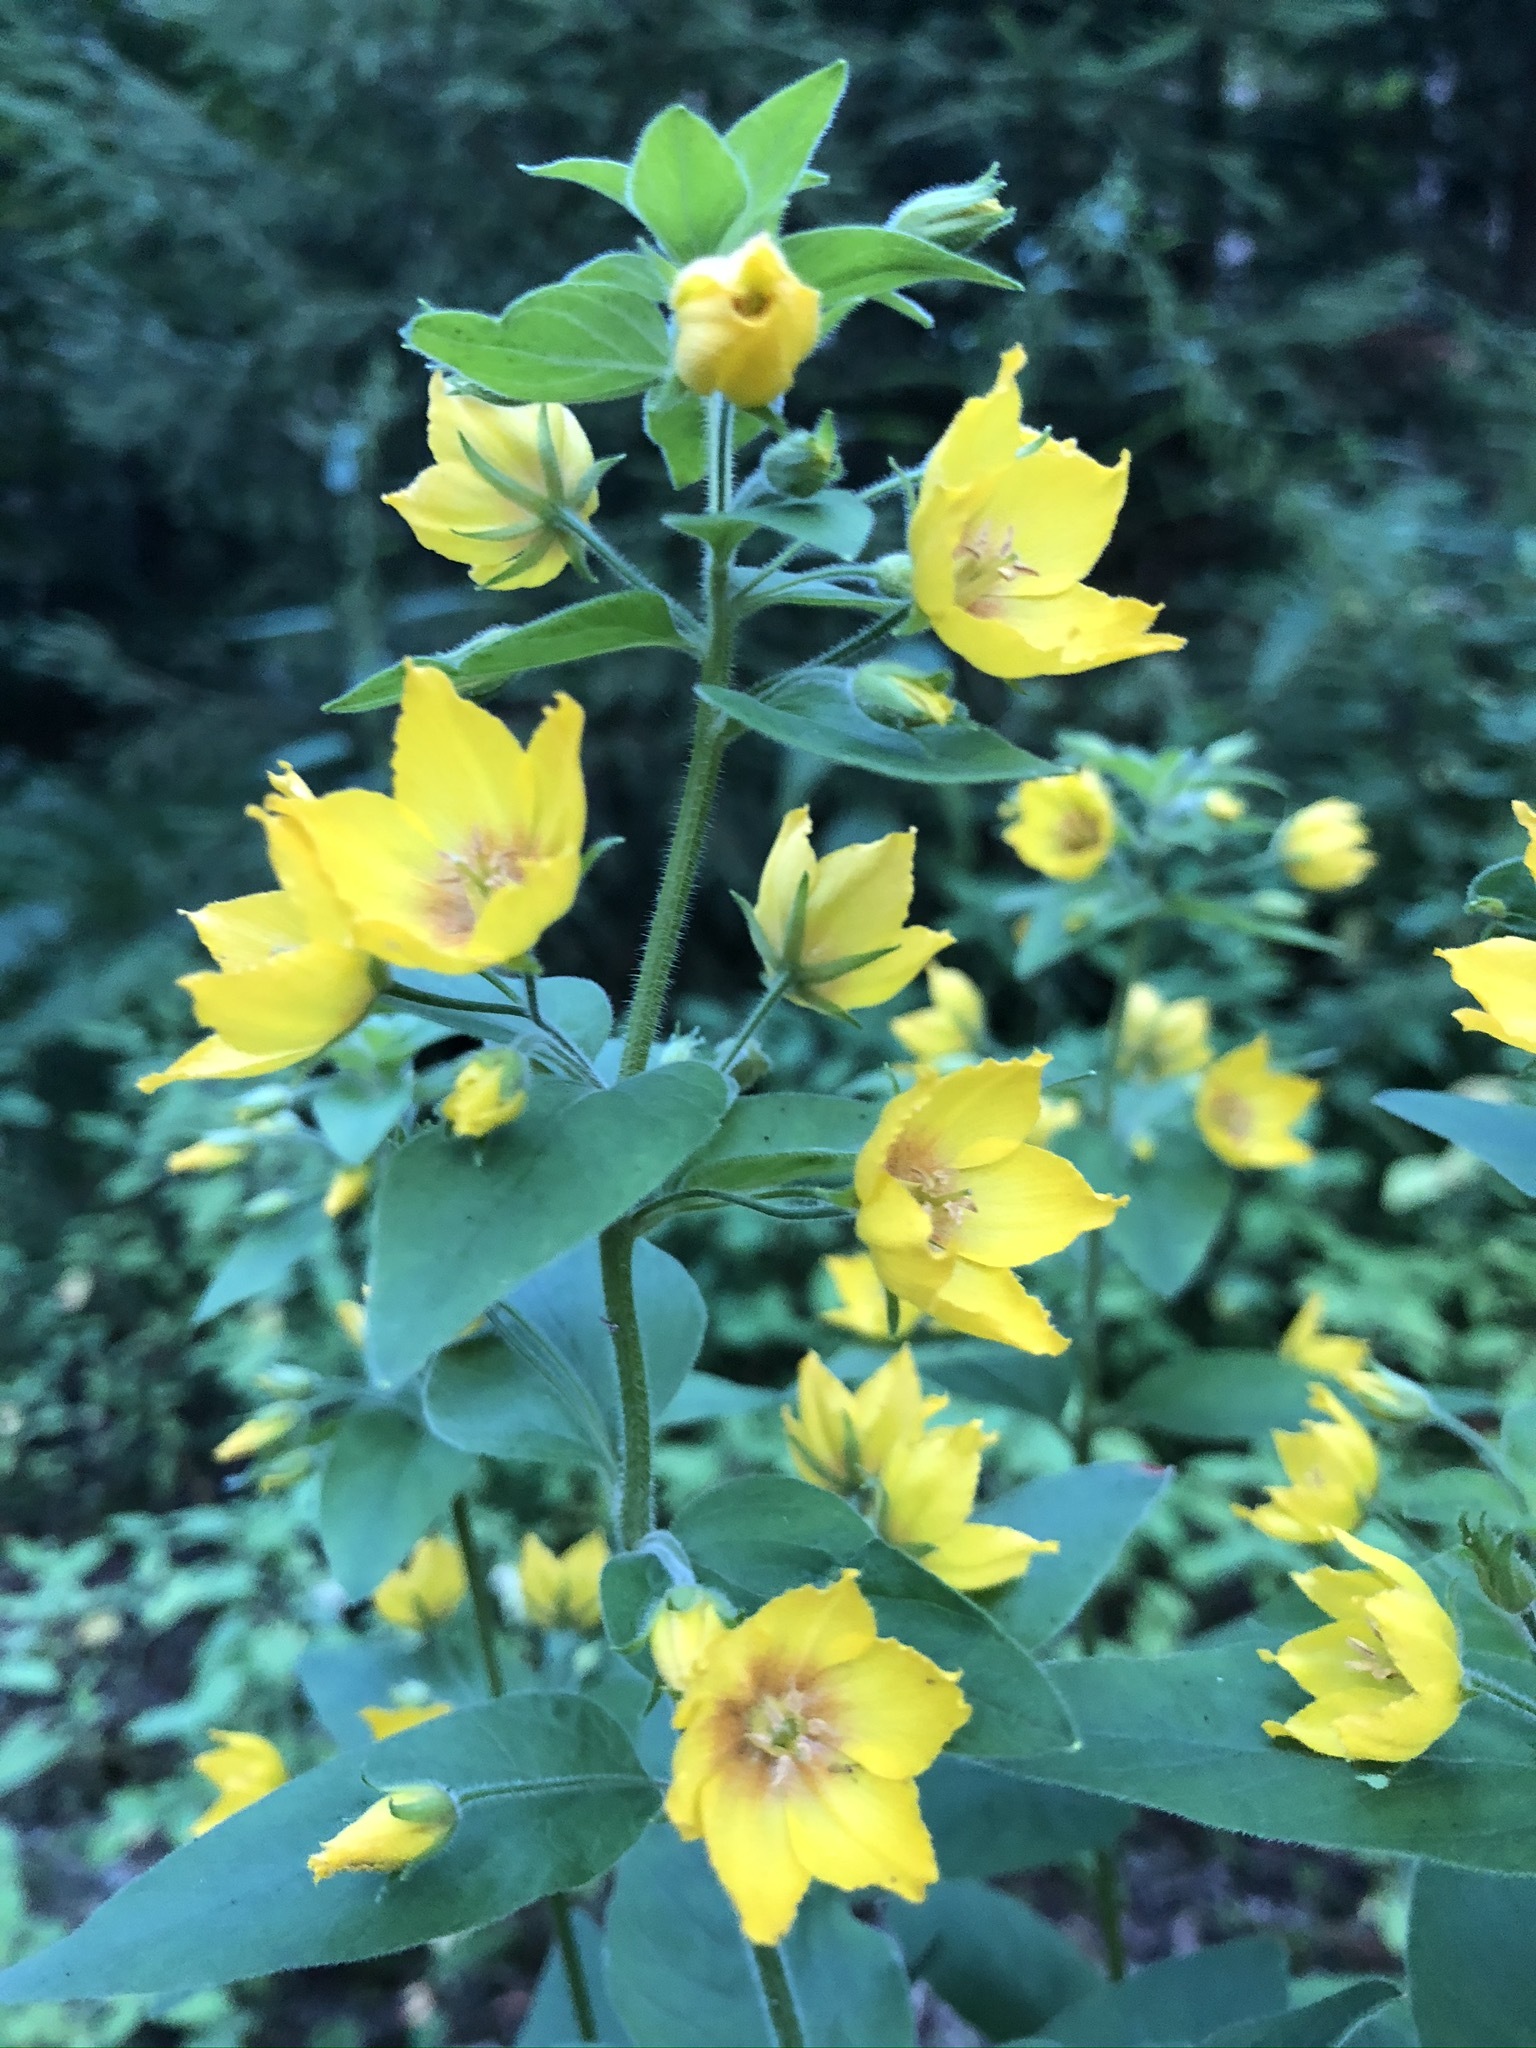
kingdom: Plantae
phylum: Tracheophyta
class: Magnoliopsida
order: Ericales
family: Primulaceae
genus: Lysimachia
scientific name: Lysimachia punctata
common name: Dotted loosestrife
